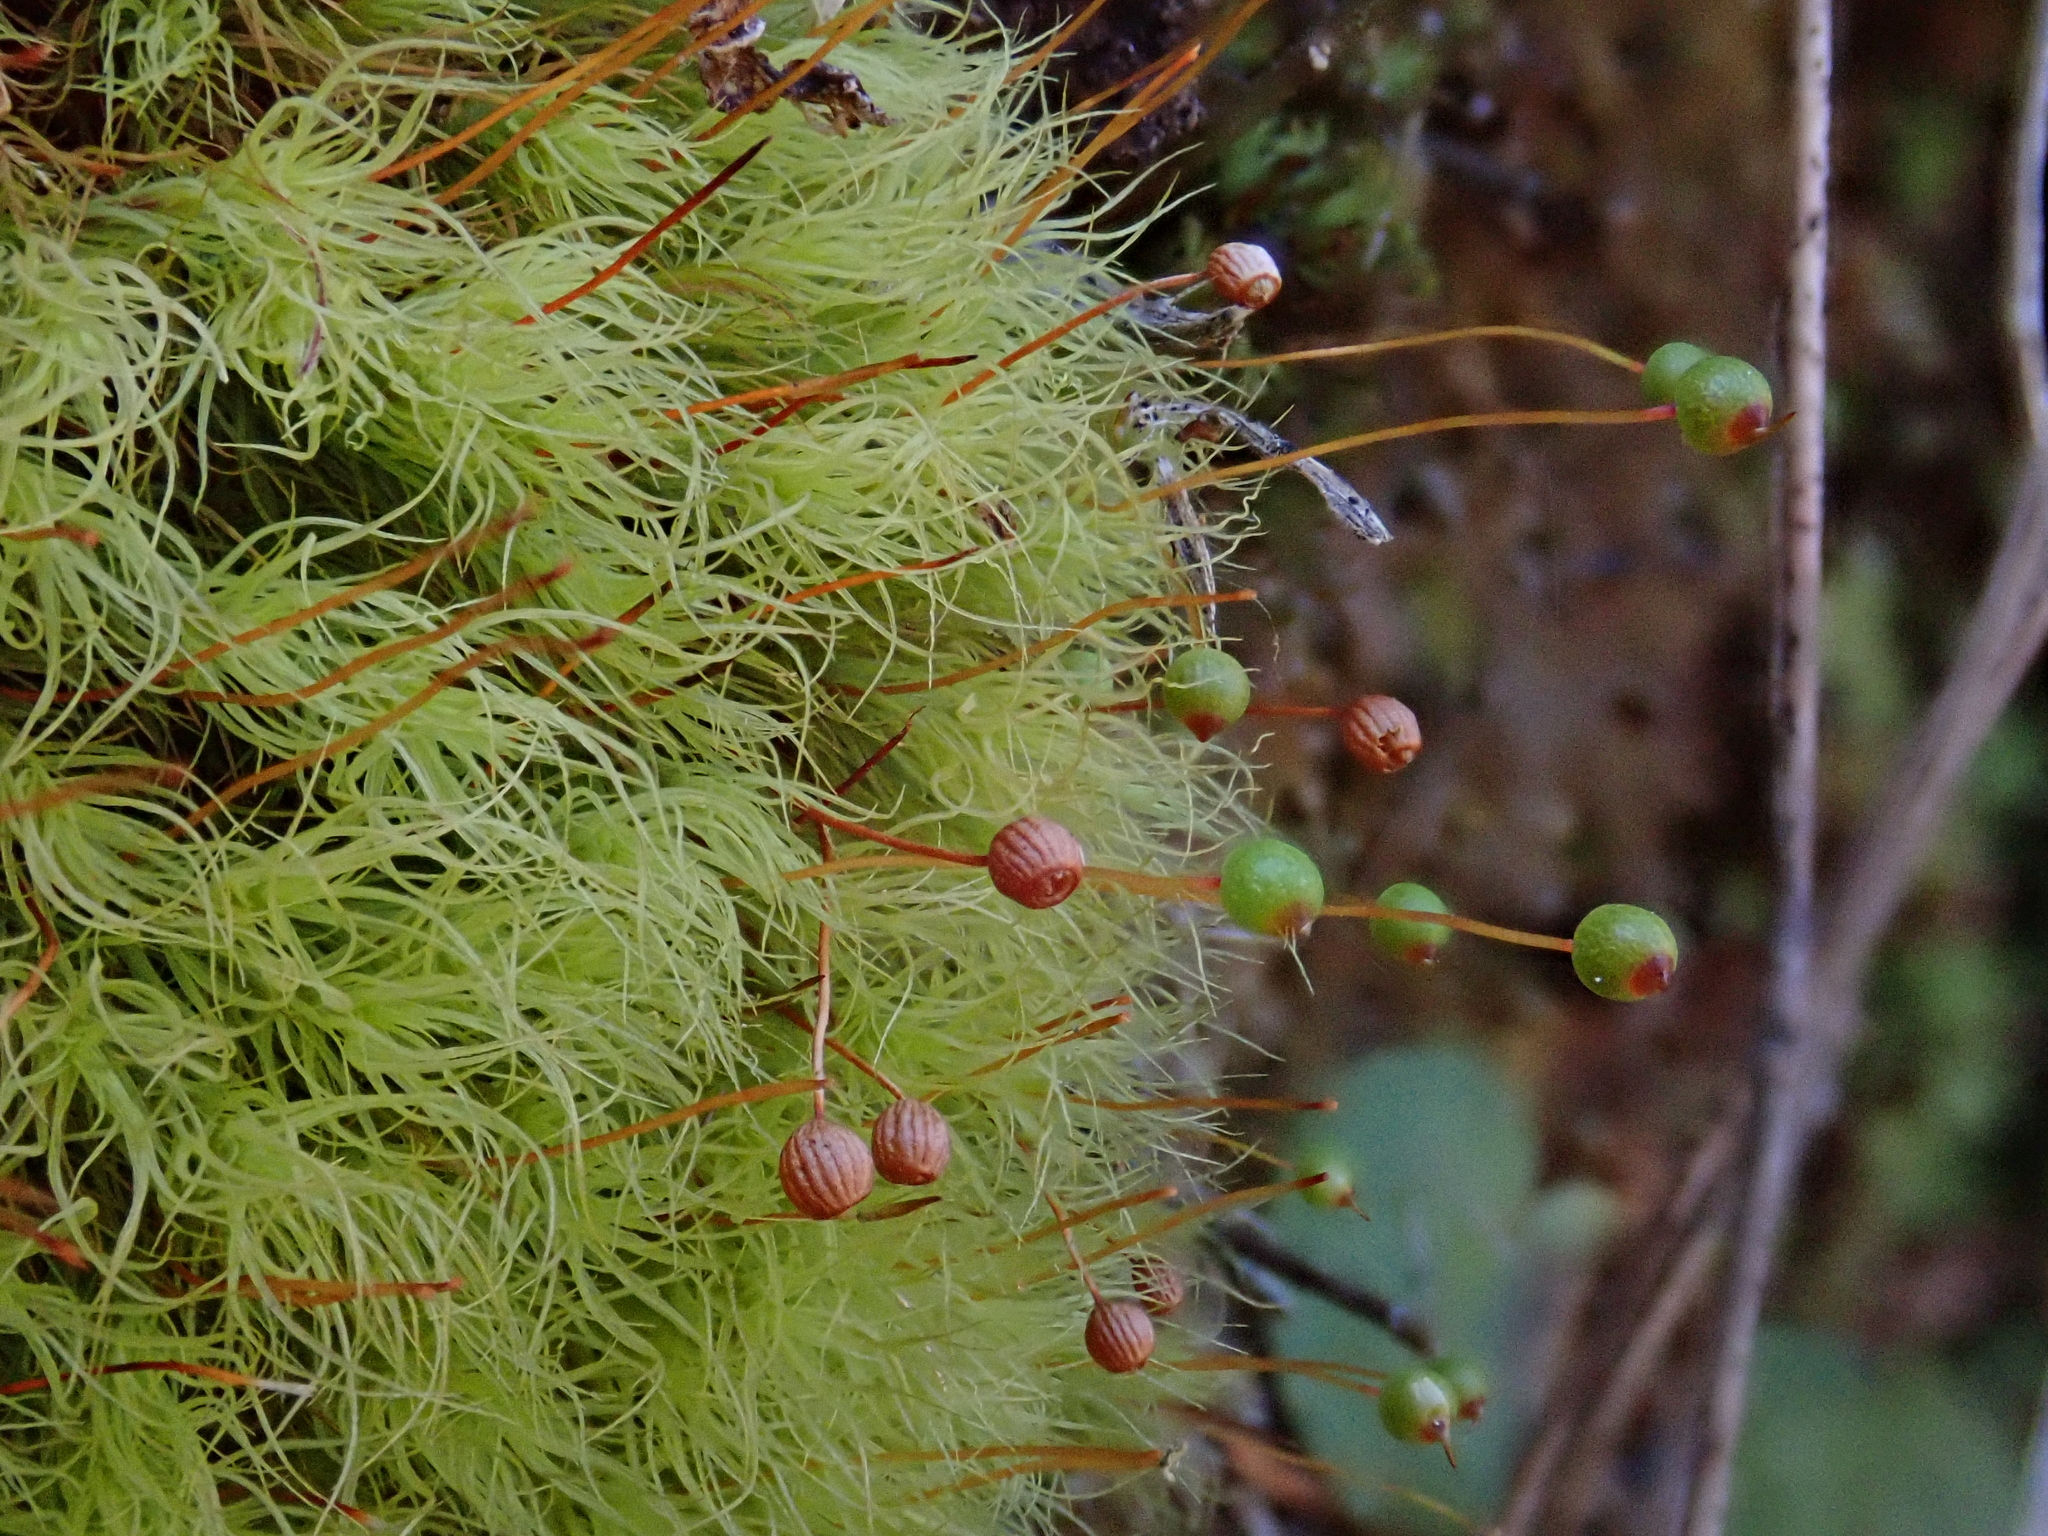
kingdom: Plantae
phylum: Bryophyta
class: Bryopsida
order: Bartramiales
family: Bartramiaceae
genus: Bartramia
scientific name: Bartramia ithyphylla
